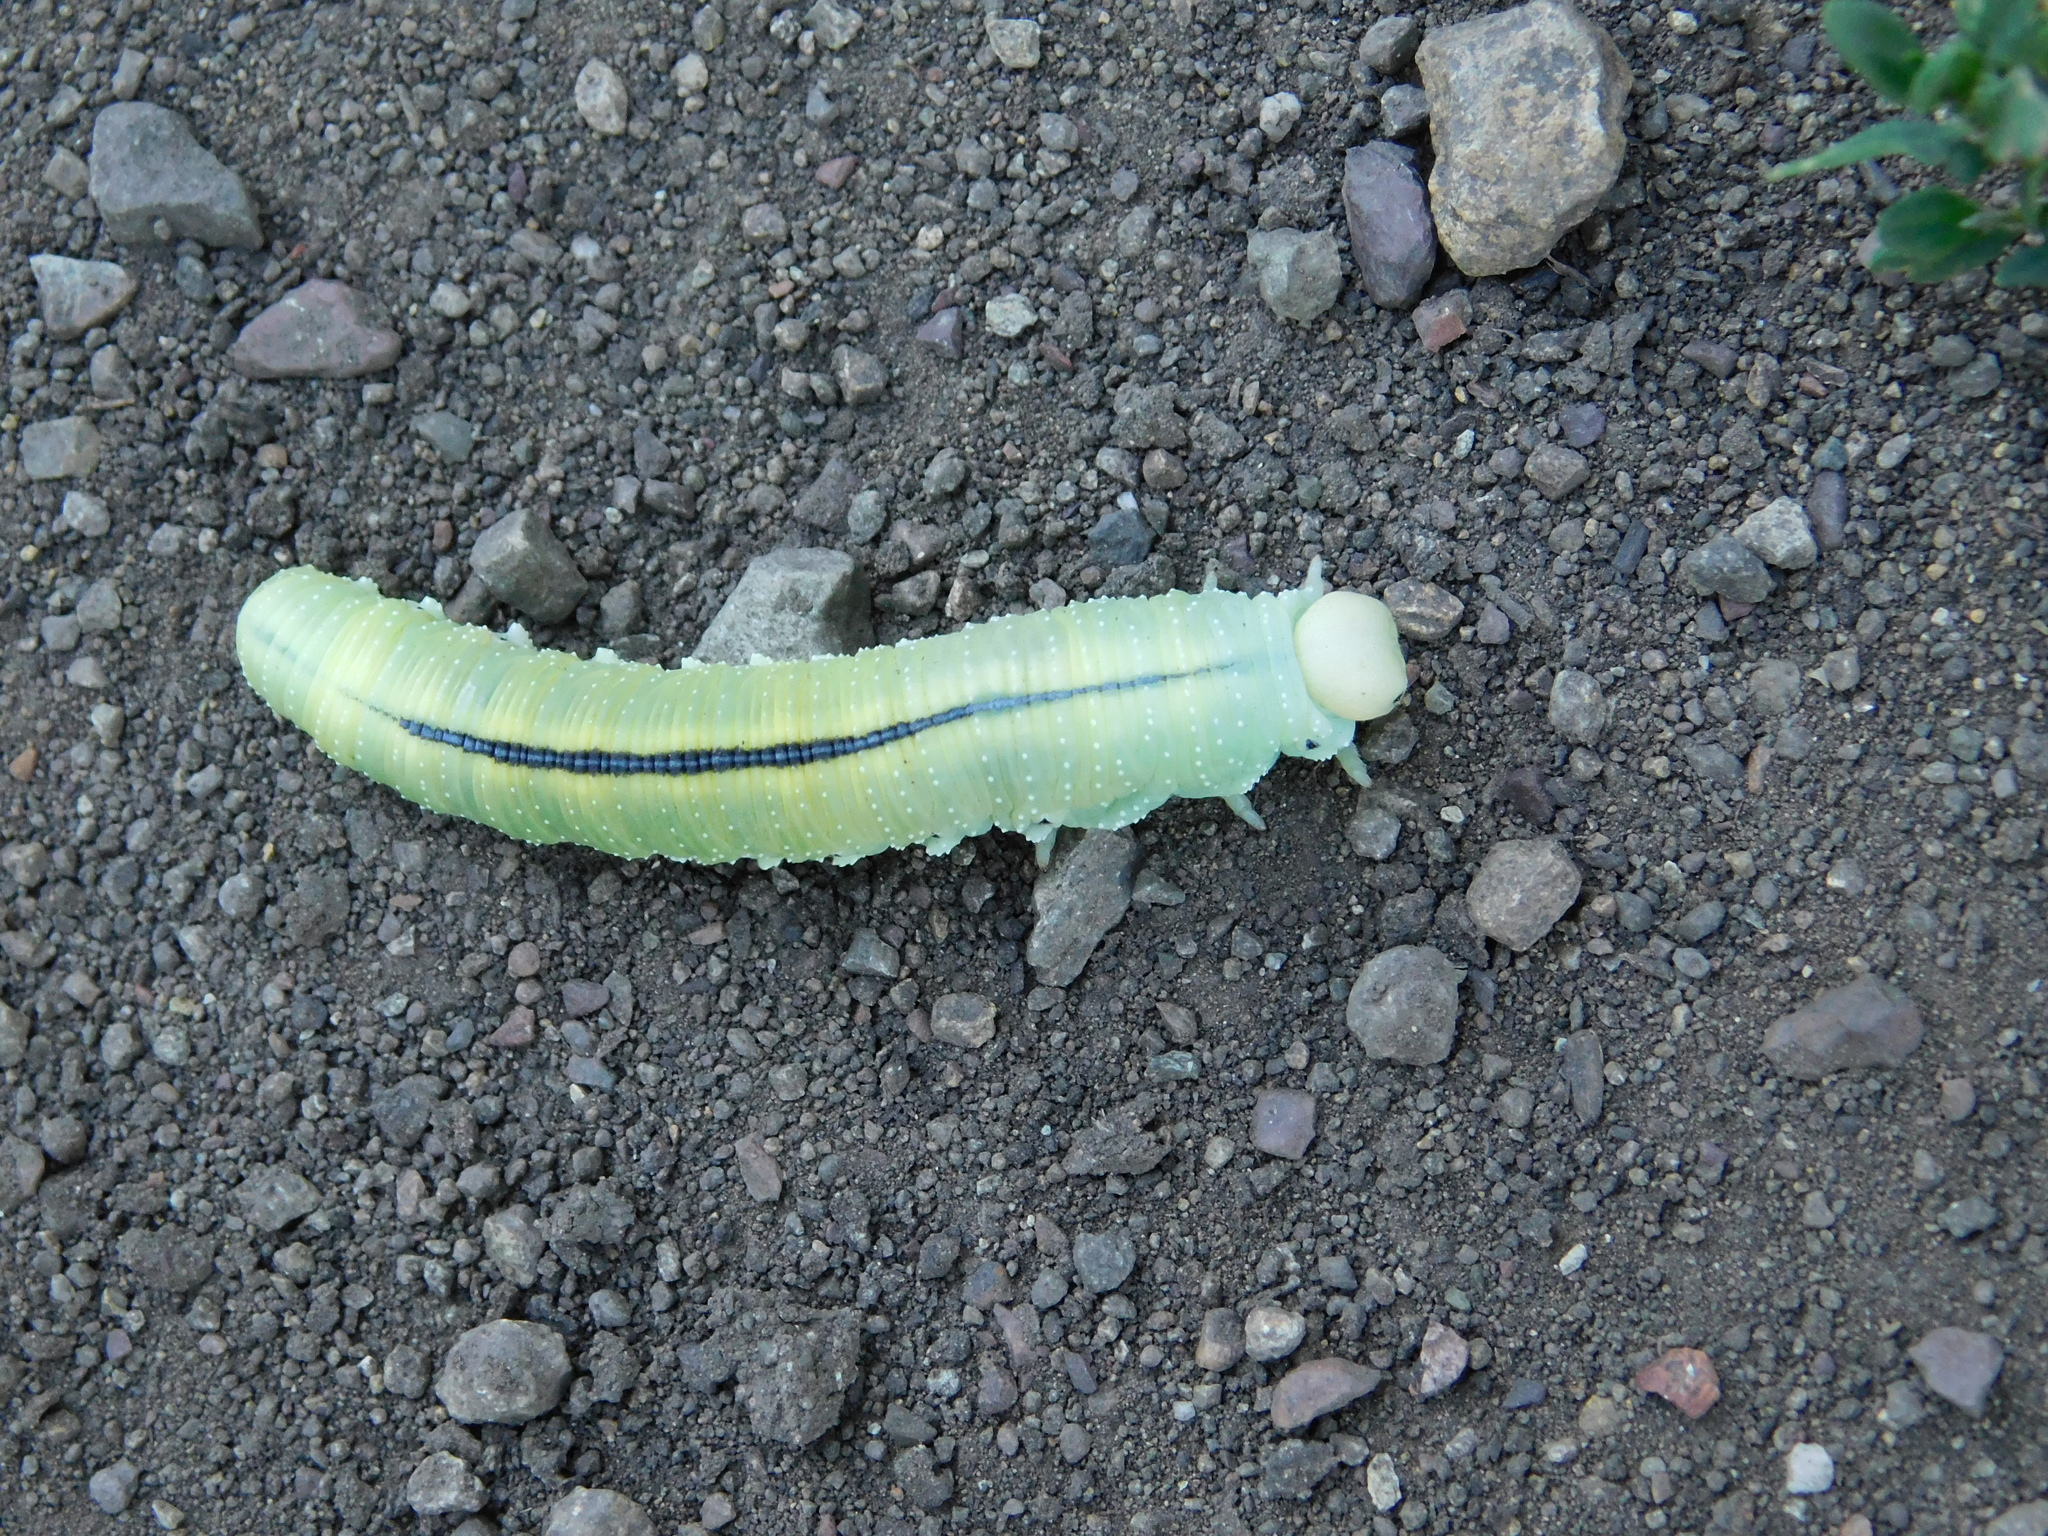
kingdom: Animalia
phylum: Arthropoda
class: Insecta
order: Hymenoptera
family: Cimbicidae
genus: Cimbex
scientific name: Cimbex femoratus
